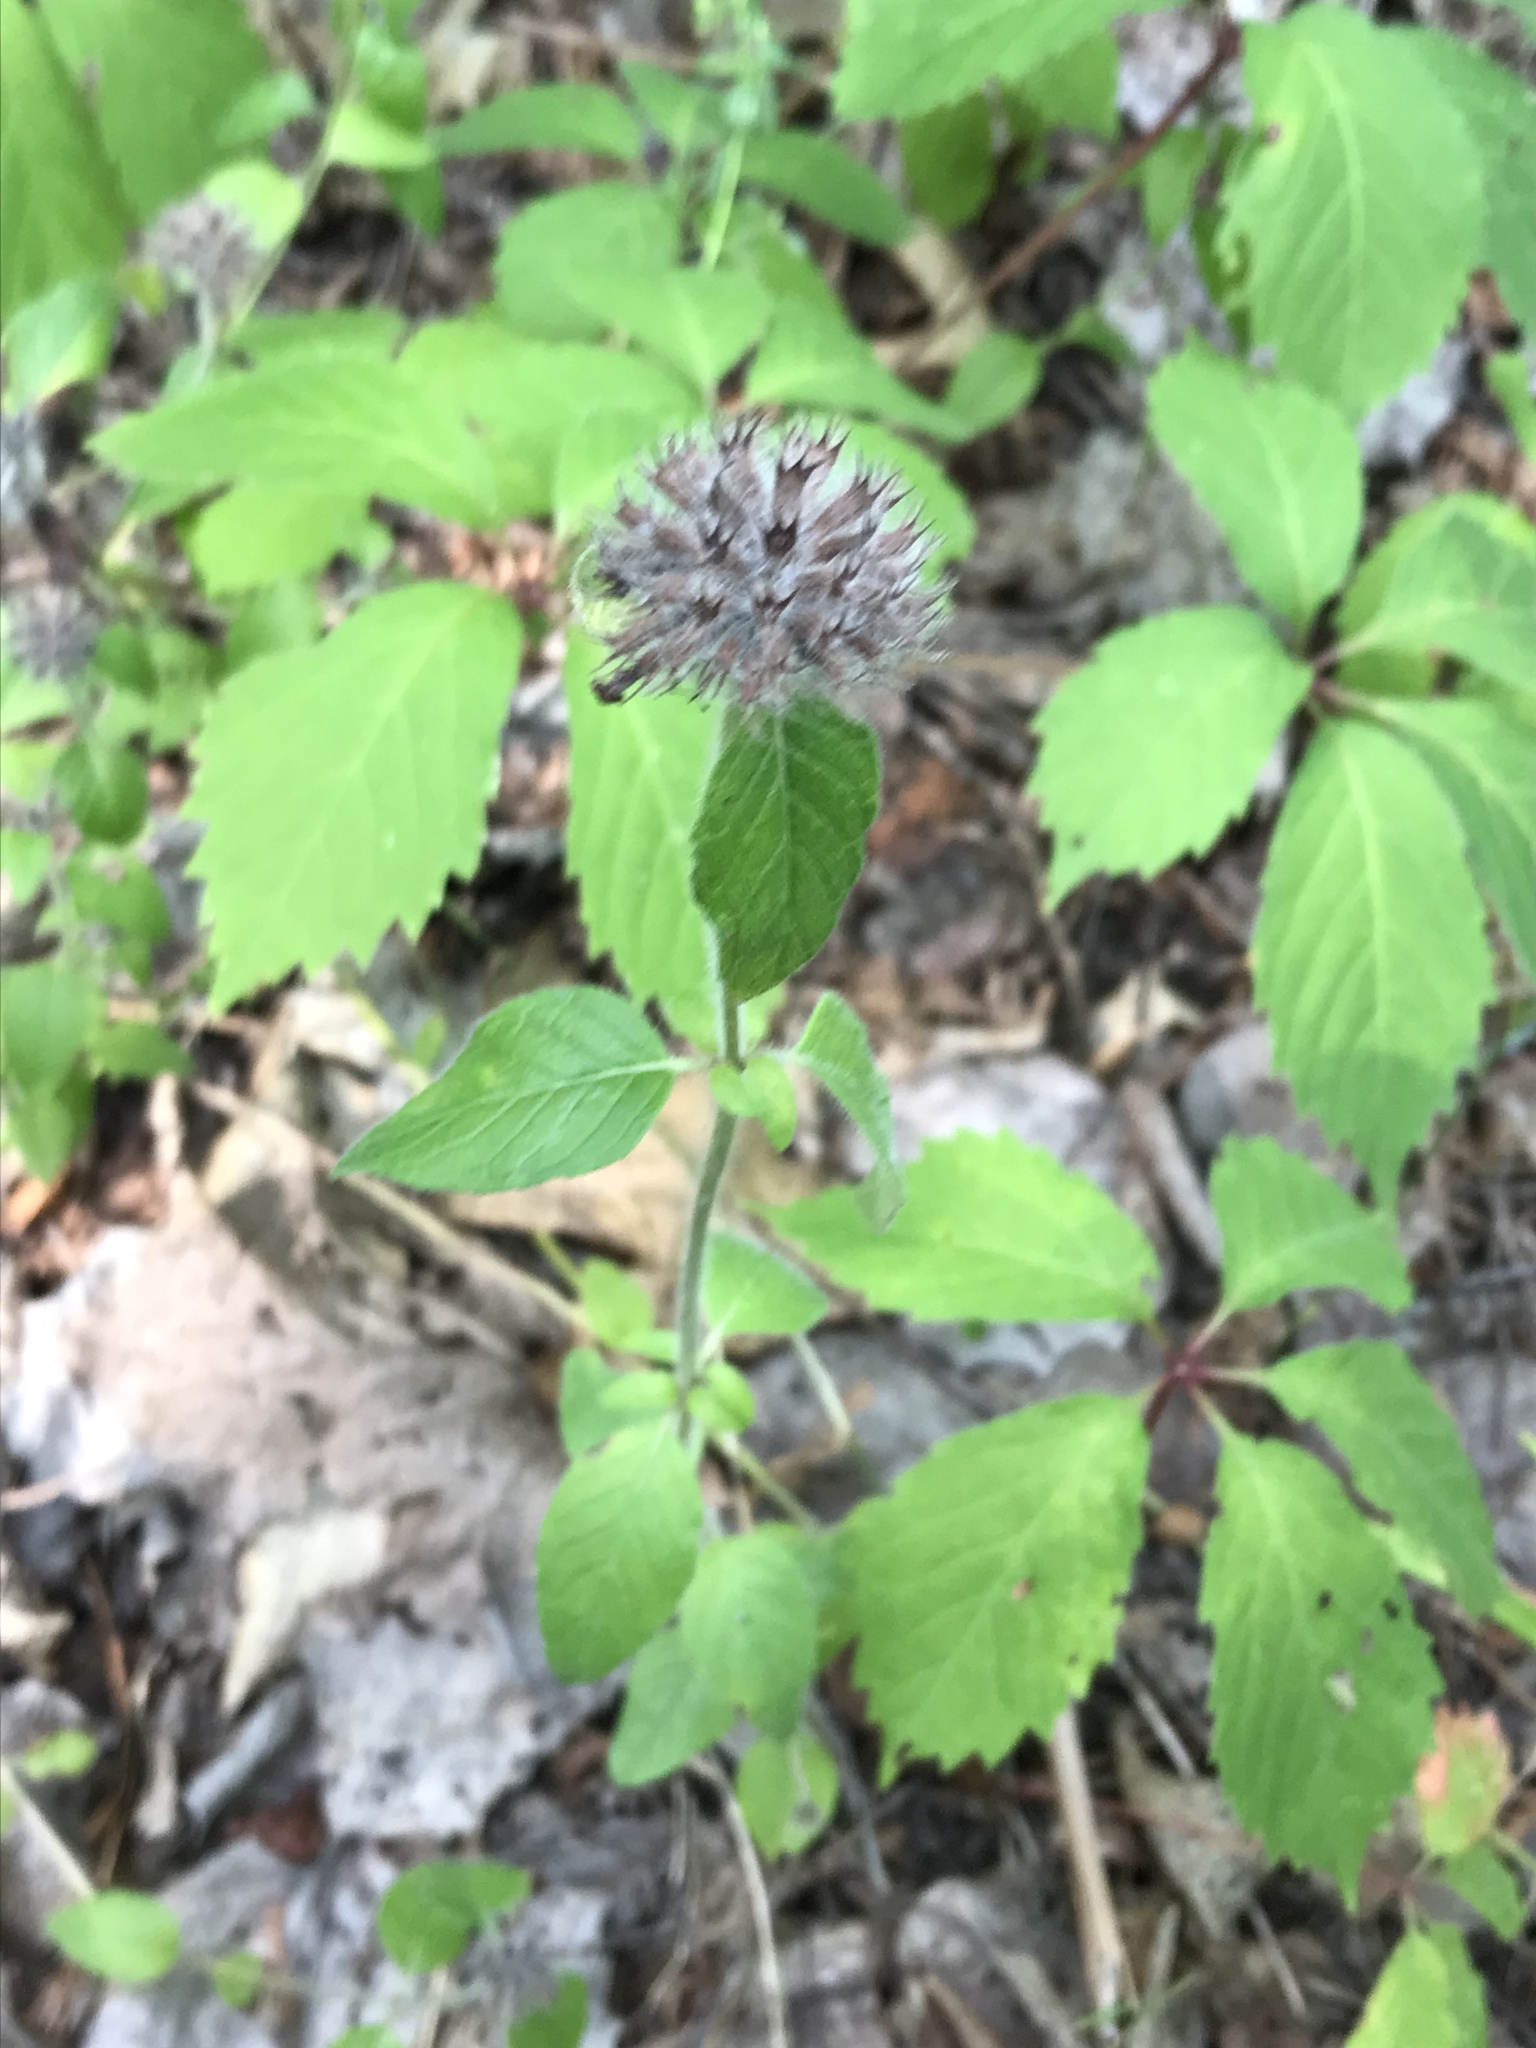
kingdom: Plantae
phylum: Tracheophyta
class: Magnoliopsida
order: Lamiales
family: Lamiaceae
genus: Clinopodium
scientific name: Clinopodium vulgare
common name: Wild basil
